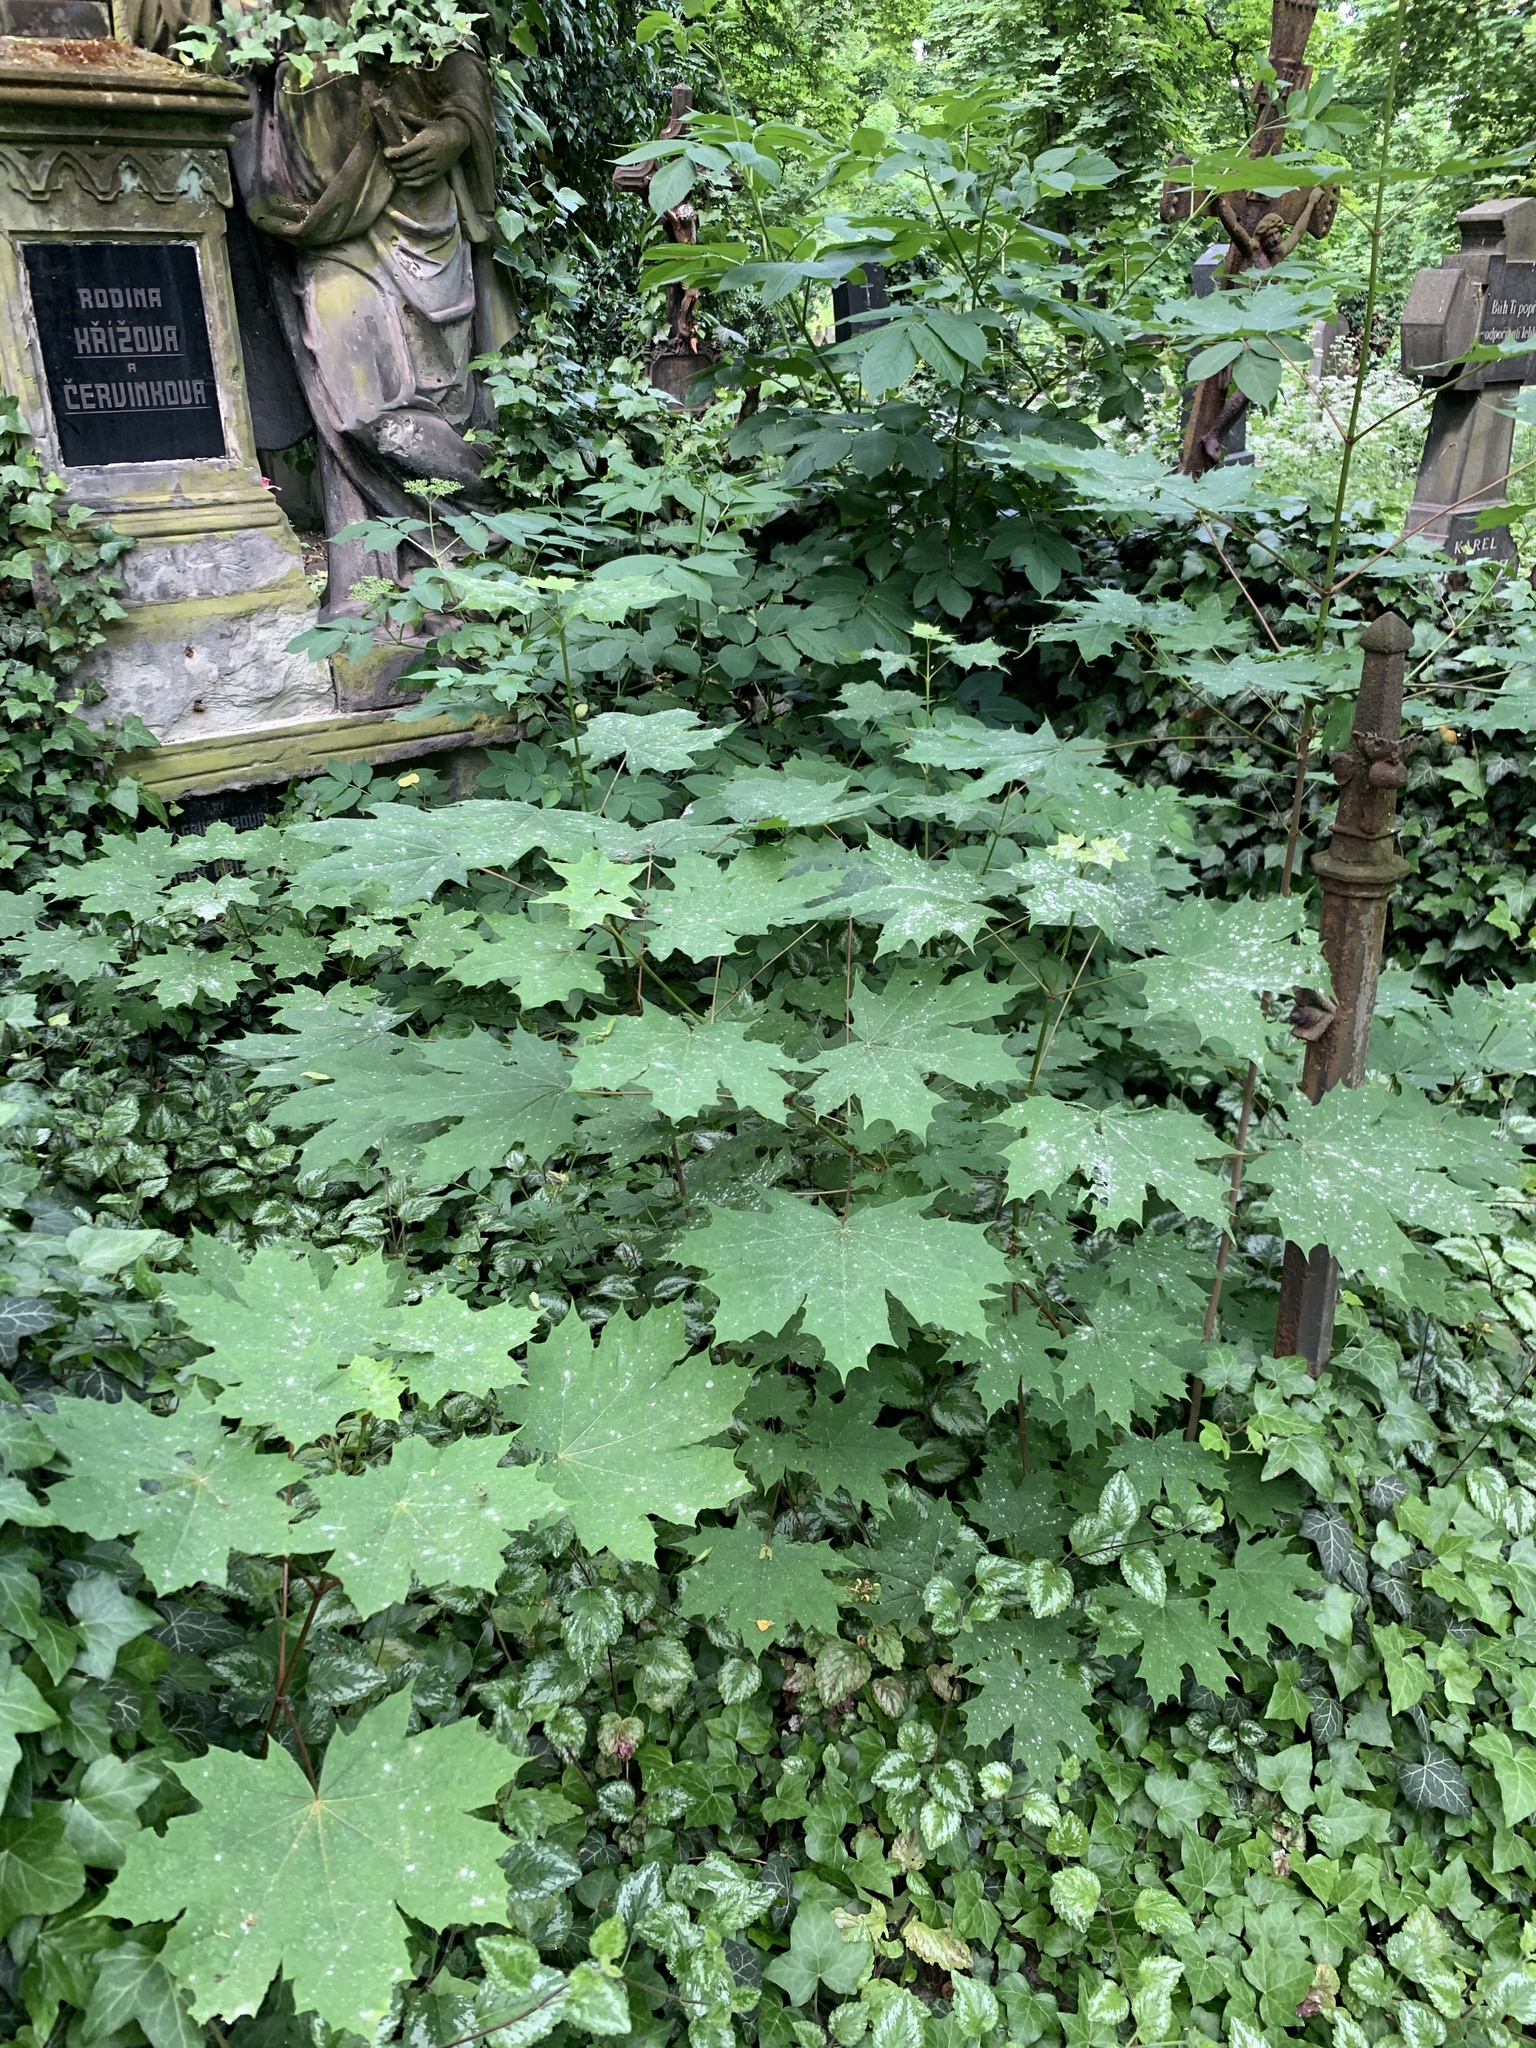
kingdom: Plantae
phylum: Tracheophyta
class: Magnoliopsida
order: Sapindales
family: Sapindaceae
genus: Acer
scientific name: Acer platanoides
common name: Norway maple
